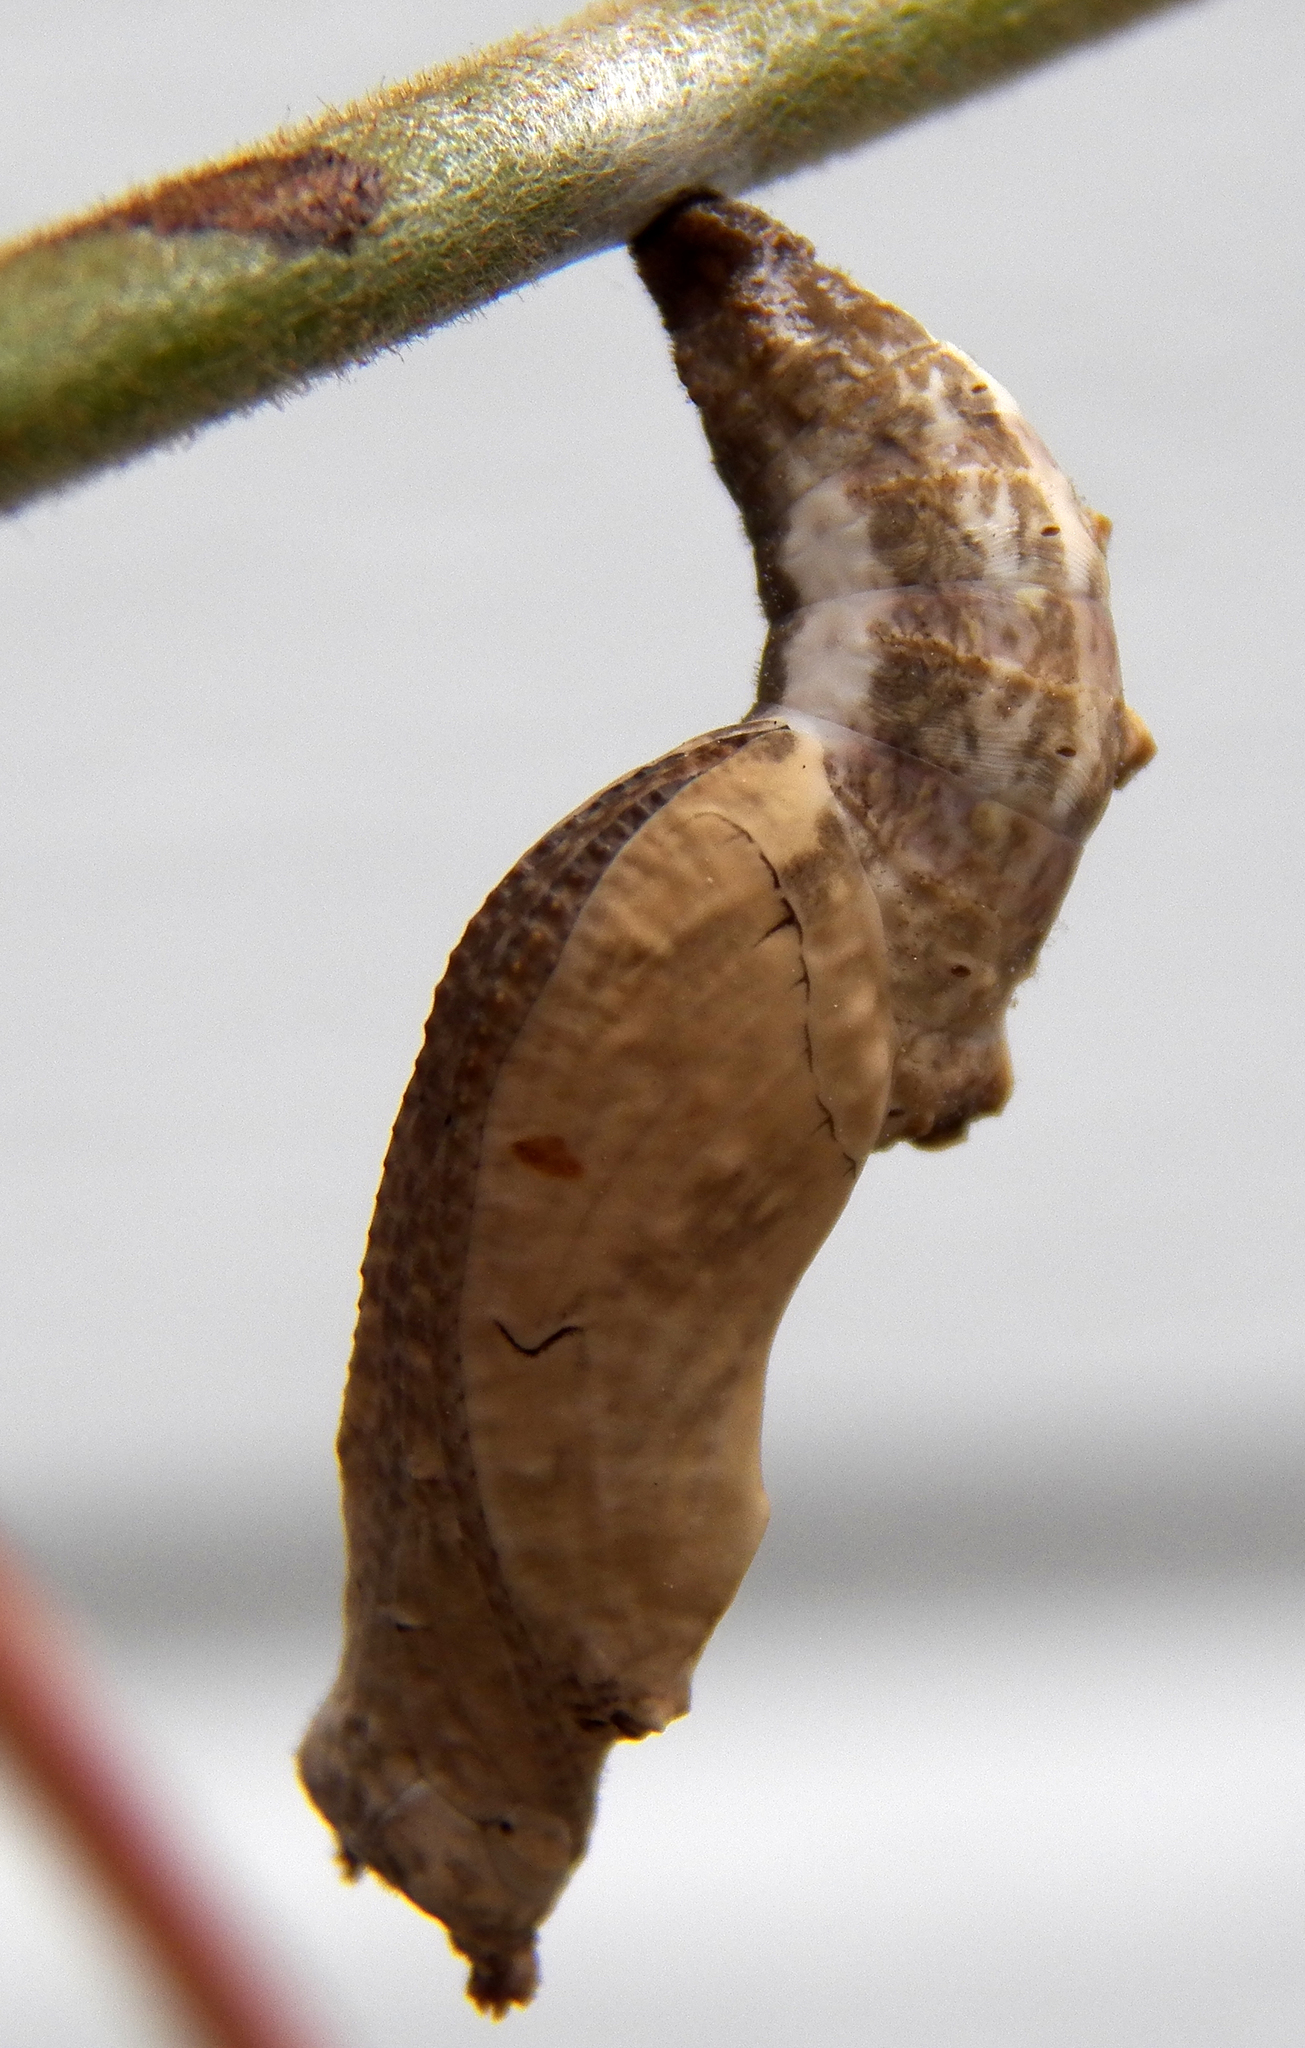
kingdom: Animalia
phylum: Arthropoda
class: Insecta
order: Lepidoptera
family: Nymphalidae
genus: Dione
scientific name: Dione vanillae
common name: Gulf fritillary
